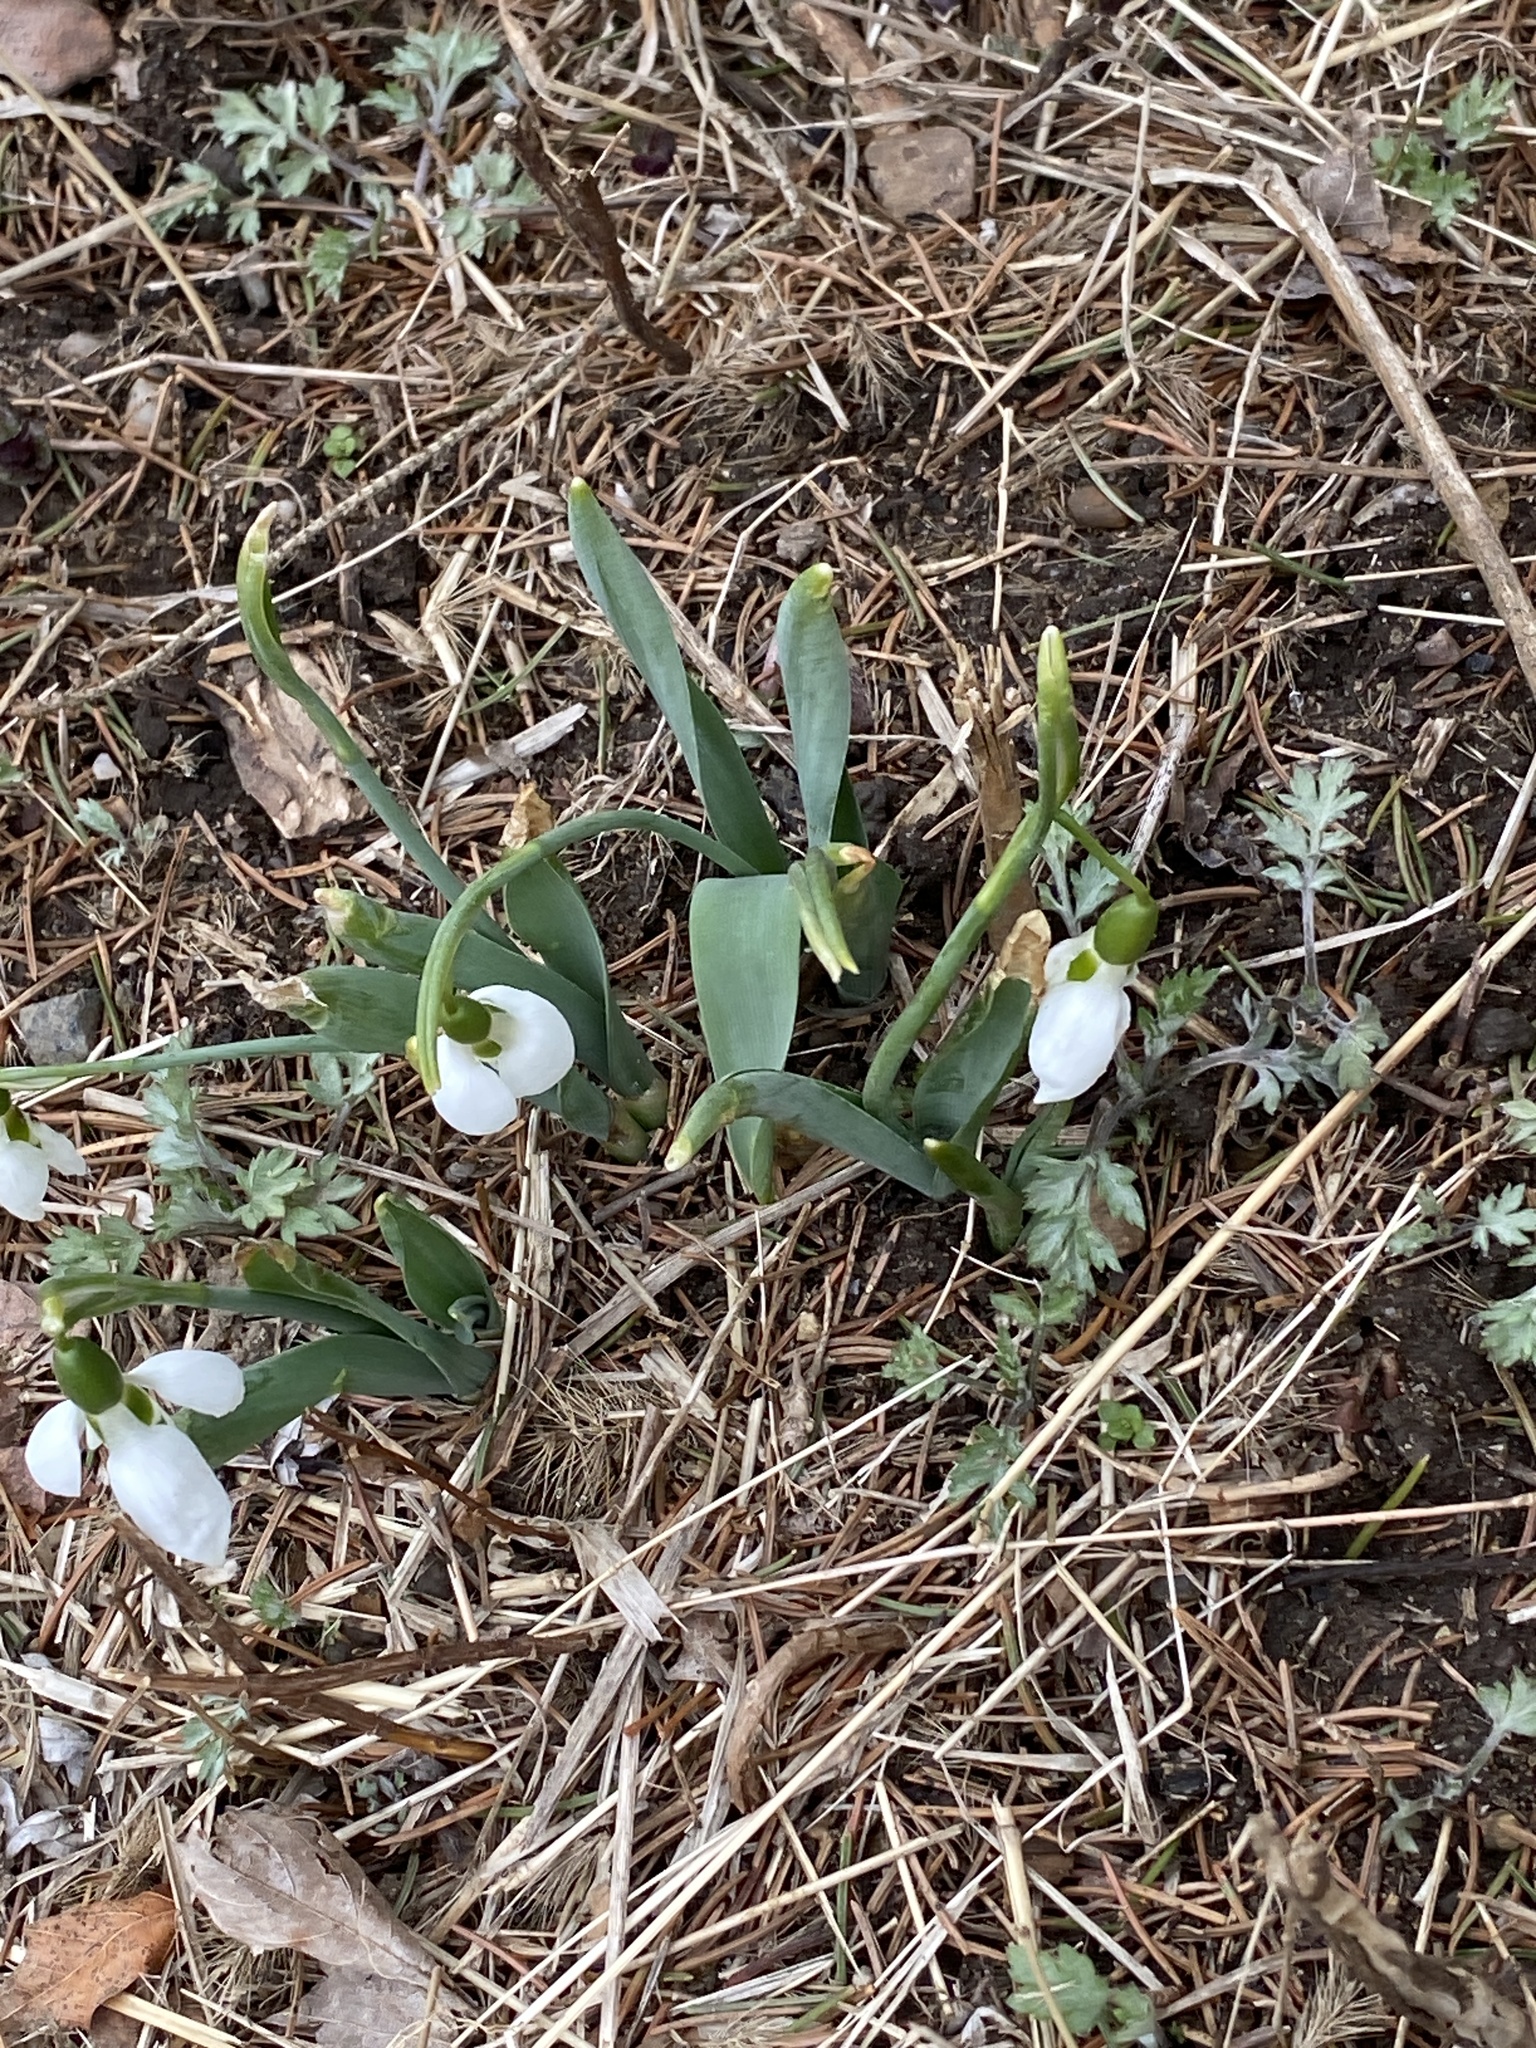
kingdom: Plantae
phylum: Tracheophyta
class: Liliopsida
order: Asparagales
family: Amaryllidaceae
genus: Galanthus
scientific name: Galanthus elwesii
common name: Greater snowdrop
